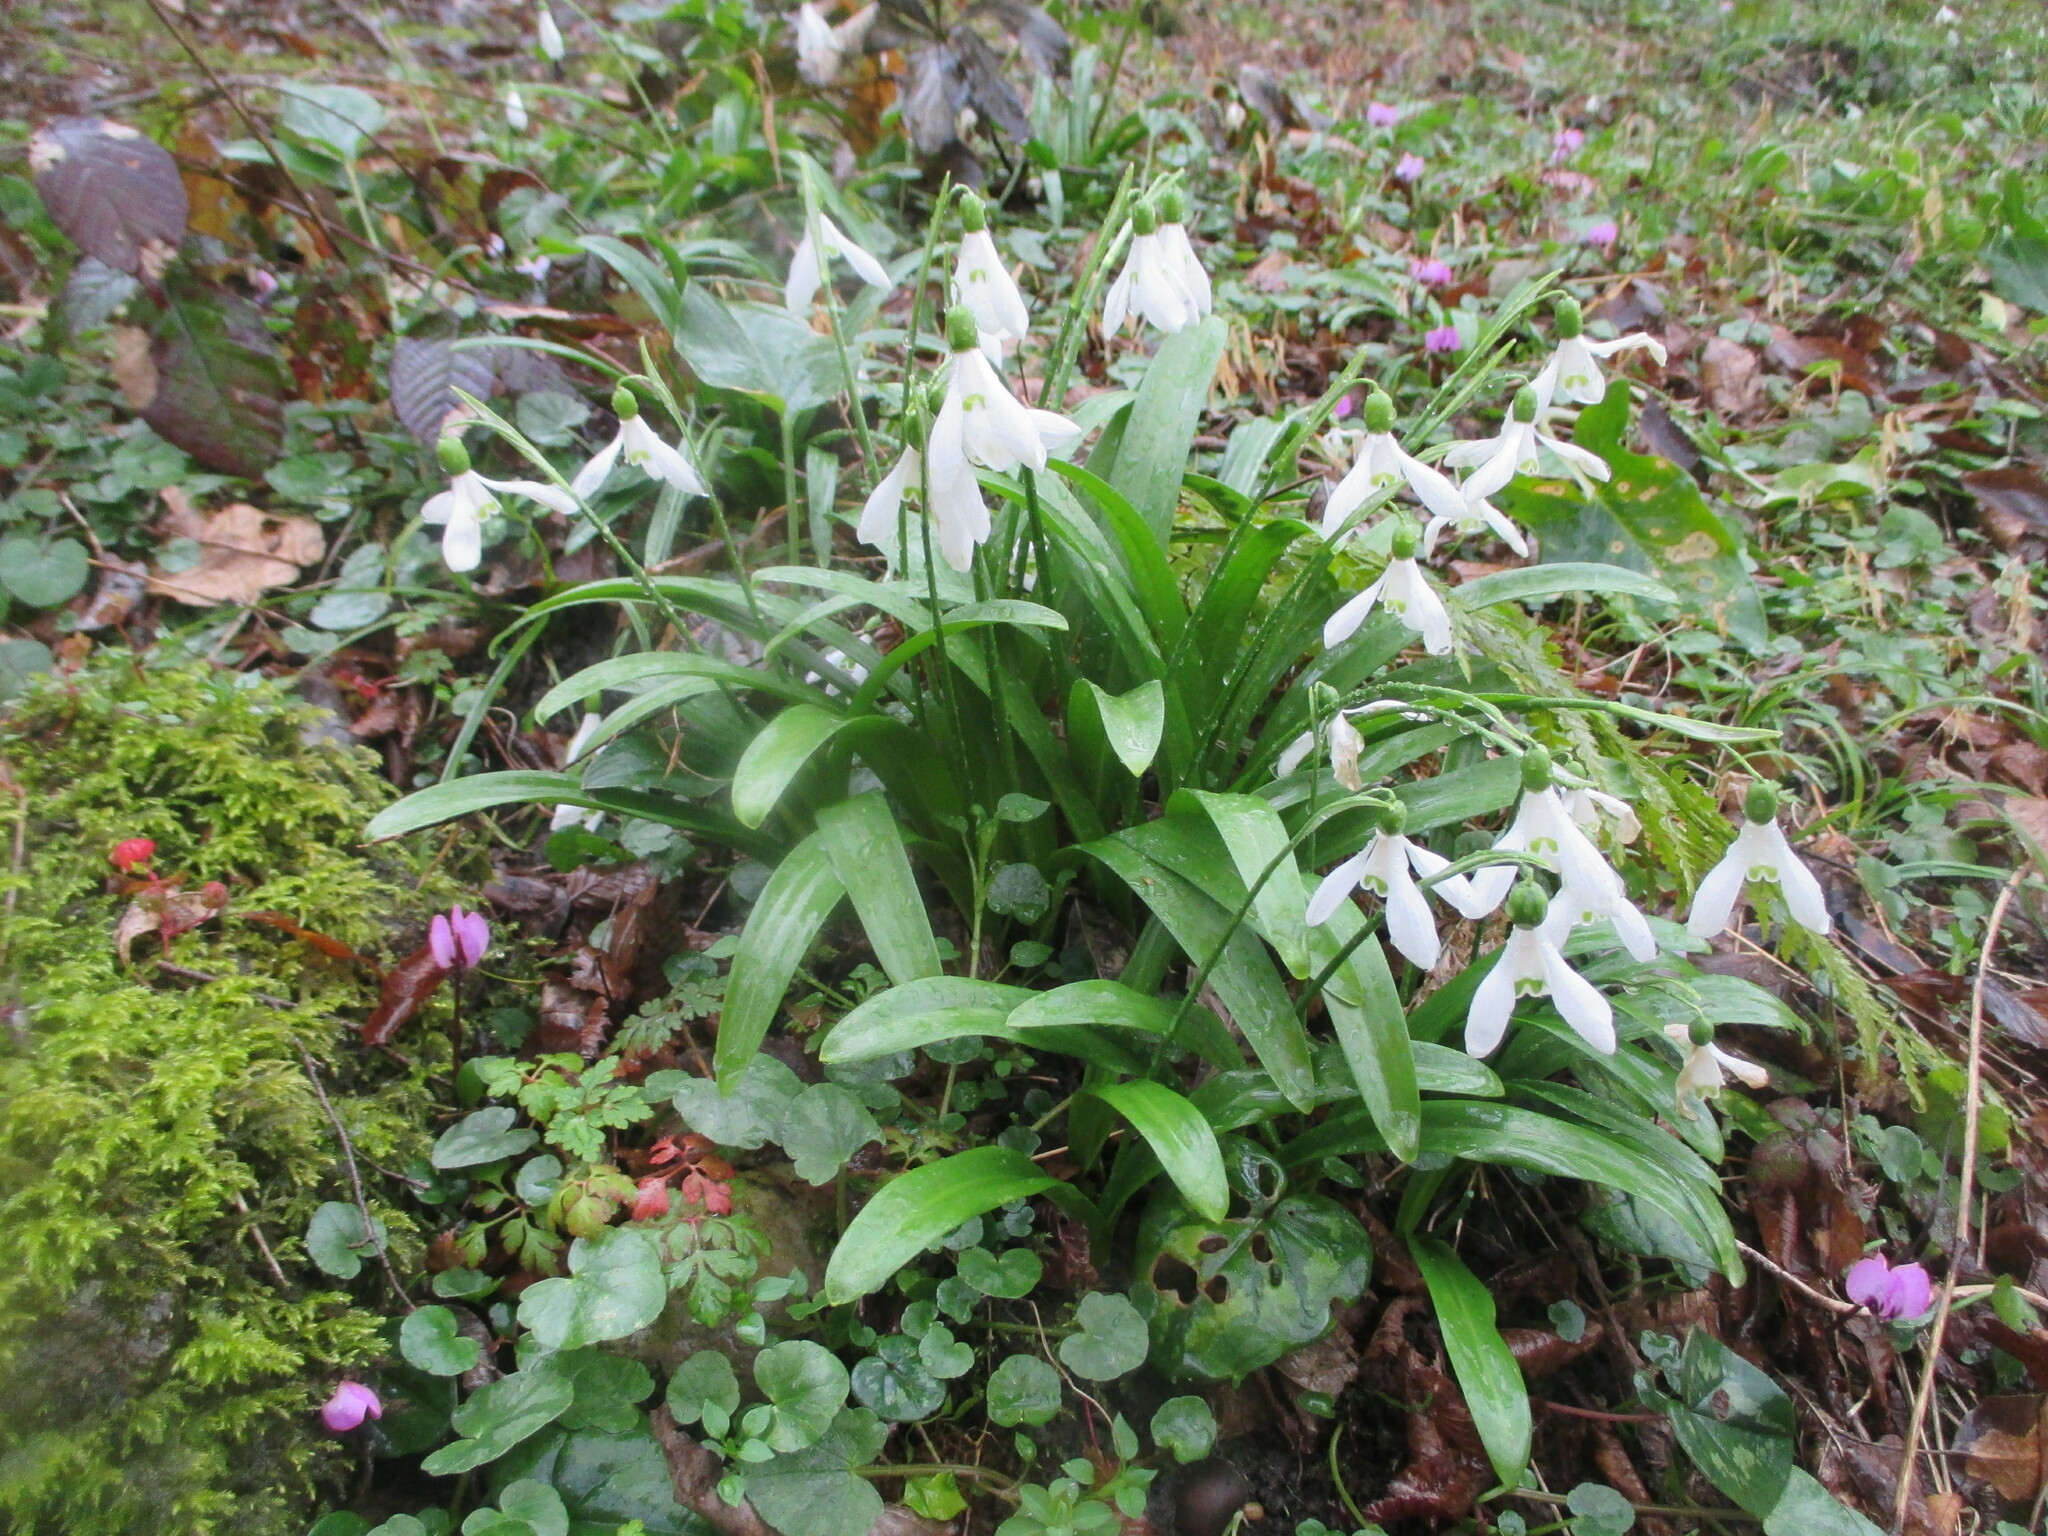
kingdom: Plantae
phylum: Tracheophyta
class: Liliopsida
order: Asparagales
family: Amaryllidaceae
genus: Galanthus
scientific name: Galanthus woronowii
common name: Green snowdrop
